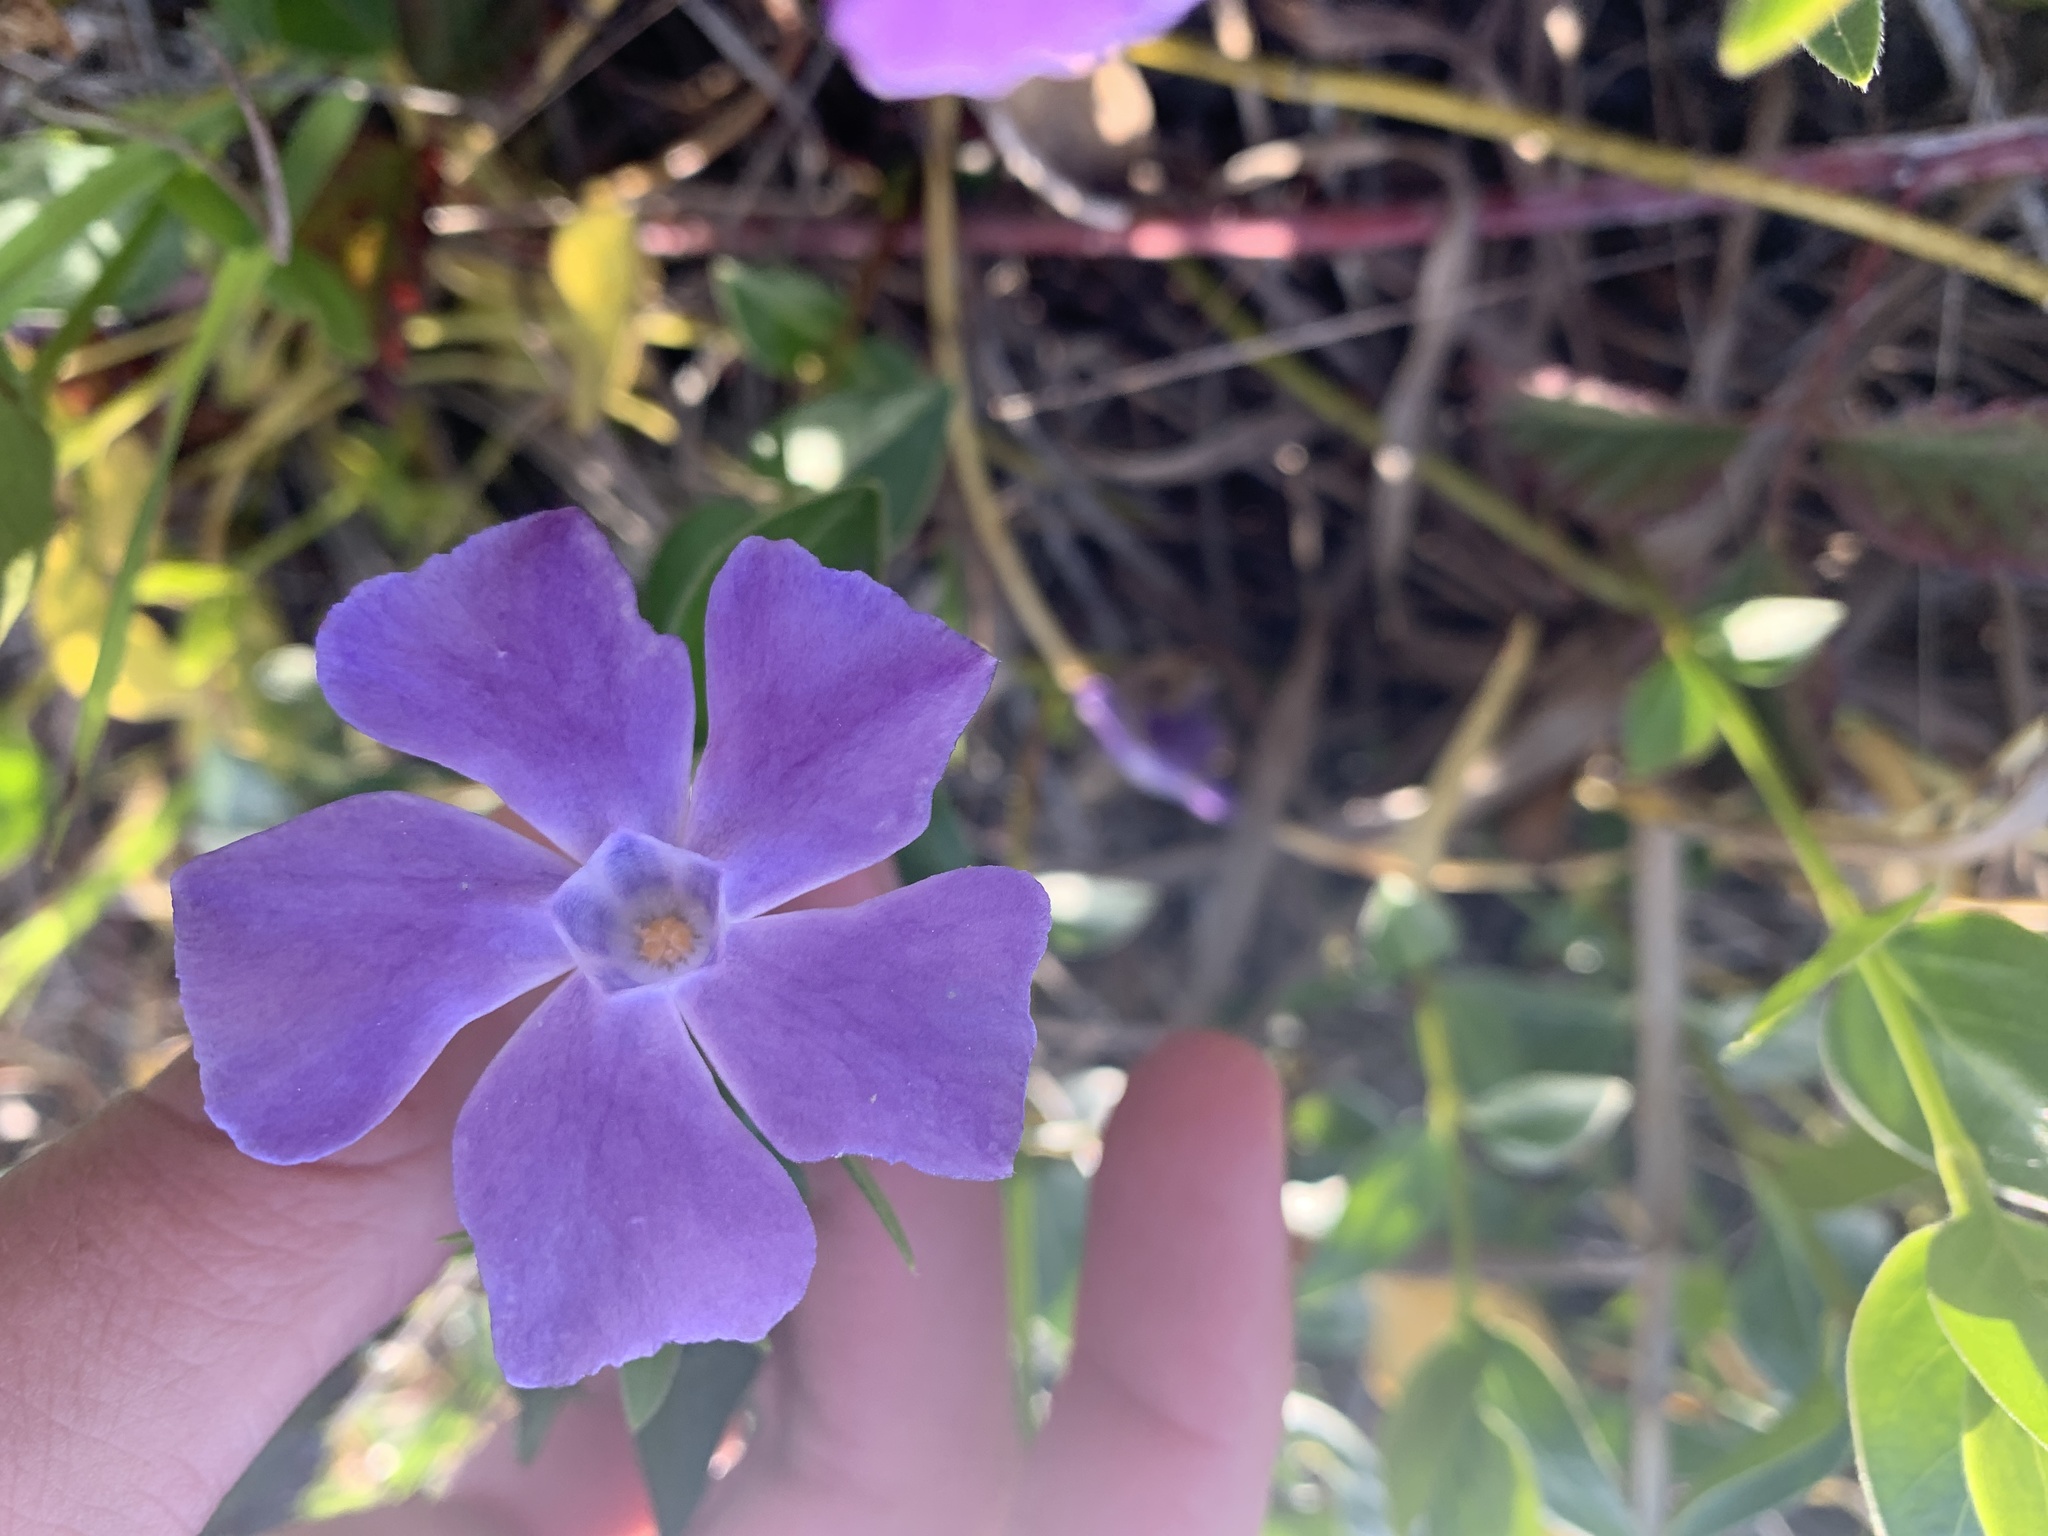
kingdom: Plantae
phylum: Tracheophyta
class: Magnoliopsida
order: Gentianales
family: Apocynaceae
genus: Vinca
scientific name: Vinca major
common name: Greater periwinkle
